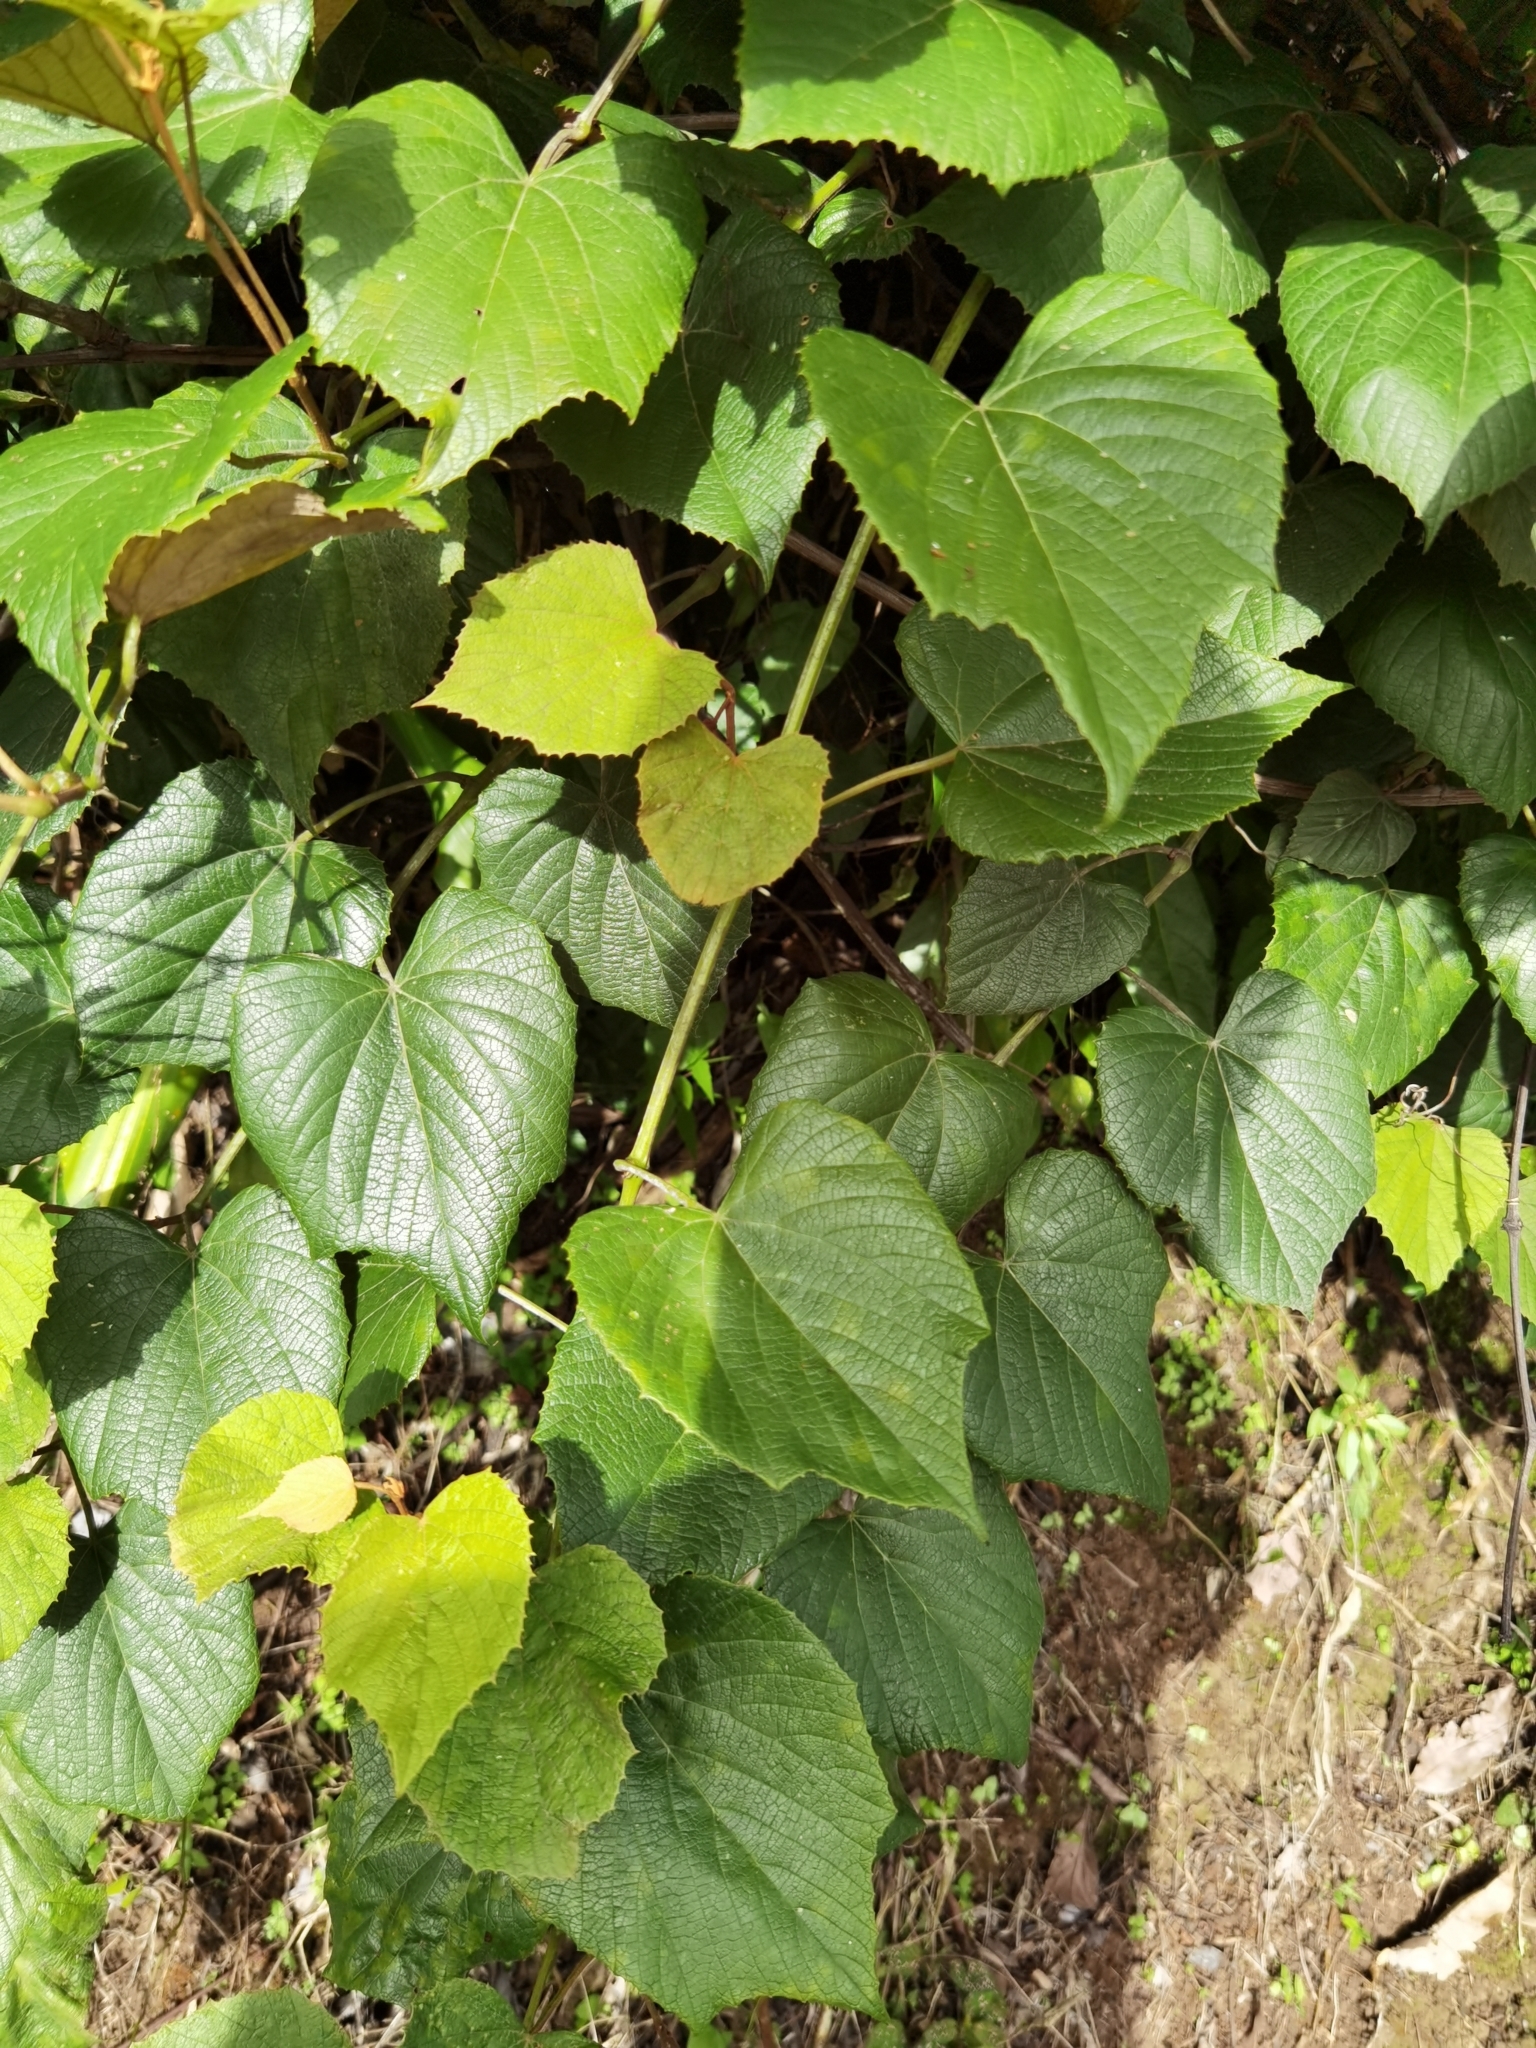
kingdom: Plantae
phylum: Tracheophyta
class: Magnoliopsida
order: Vitales
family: Vitaceae
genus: Vitis
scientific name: Vitis tiliifolia
